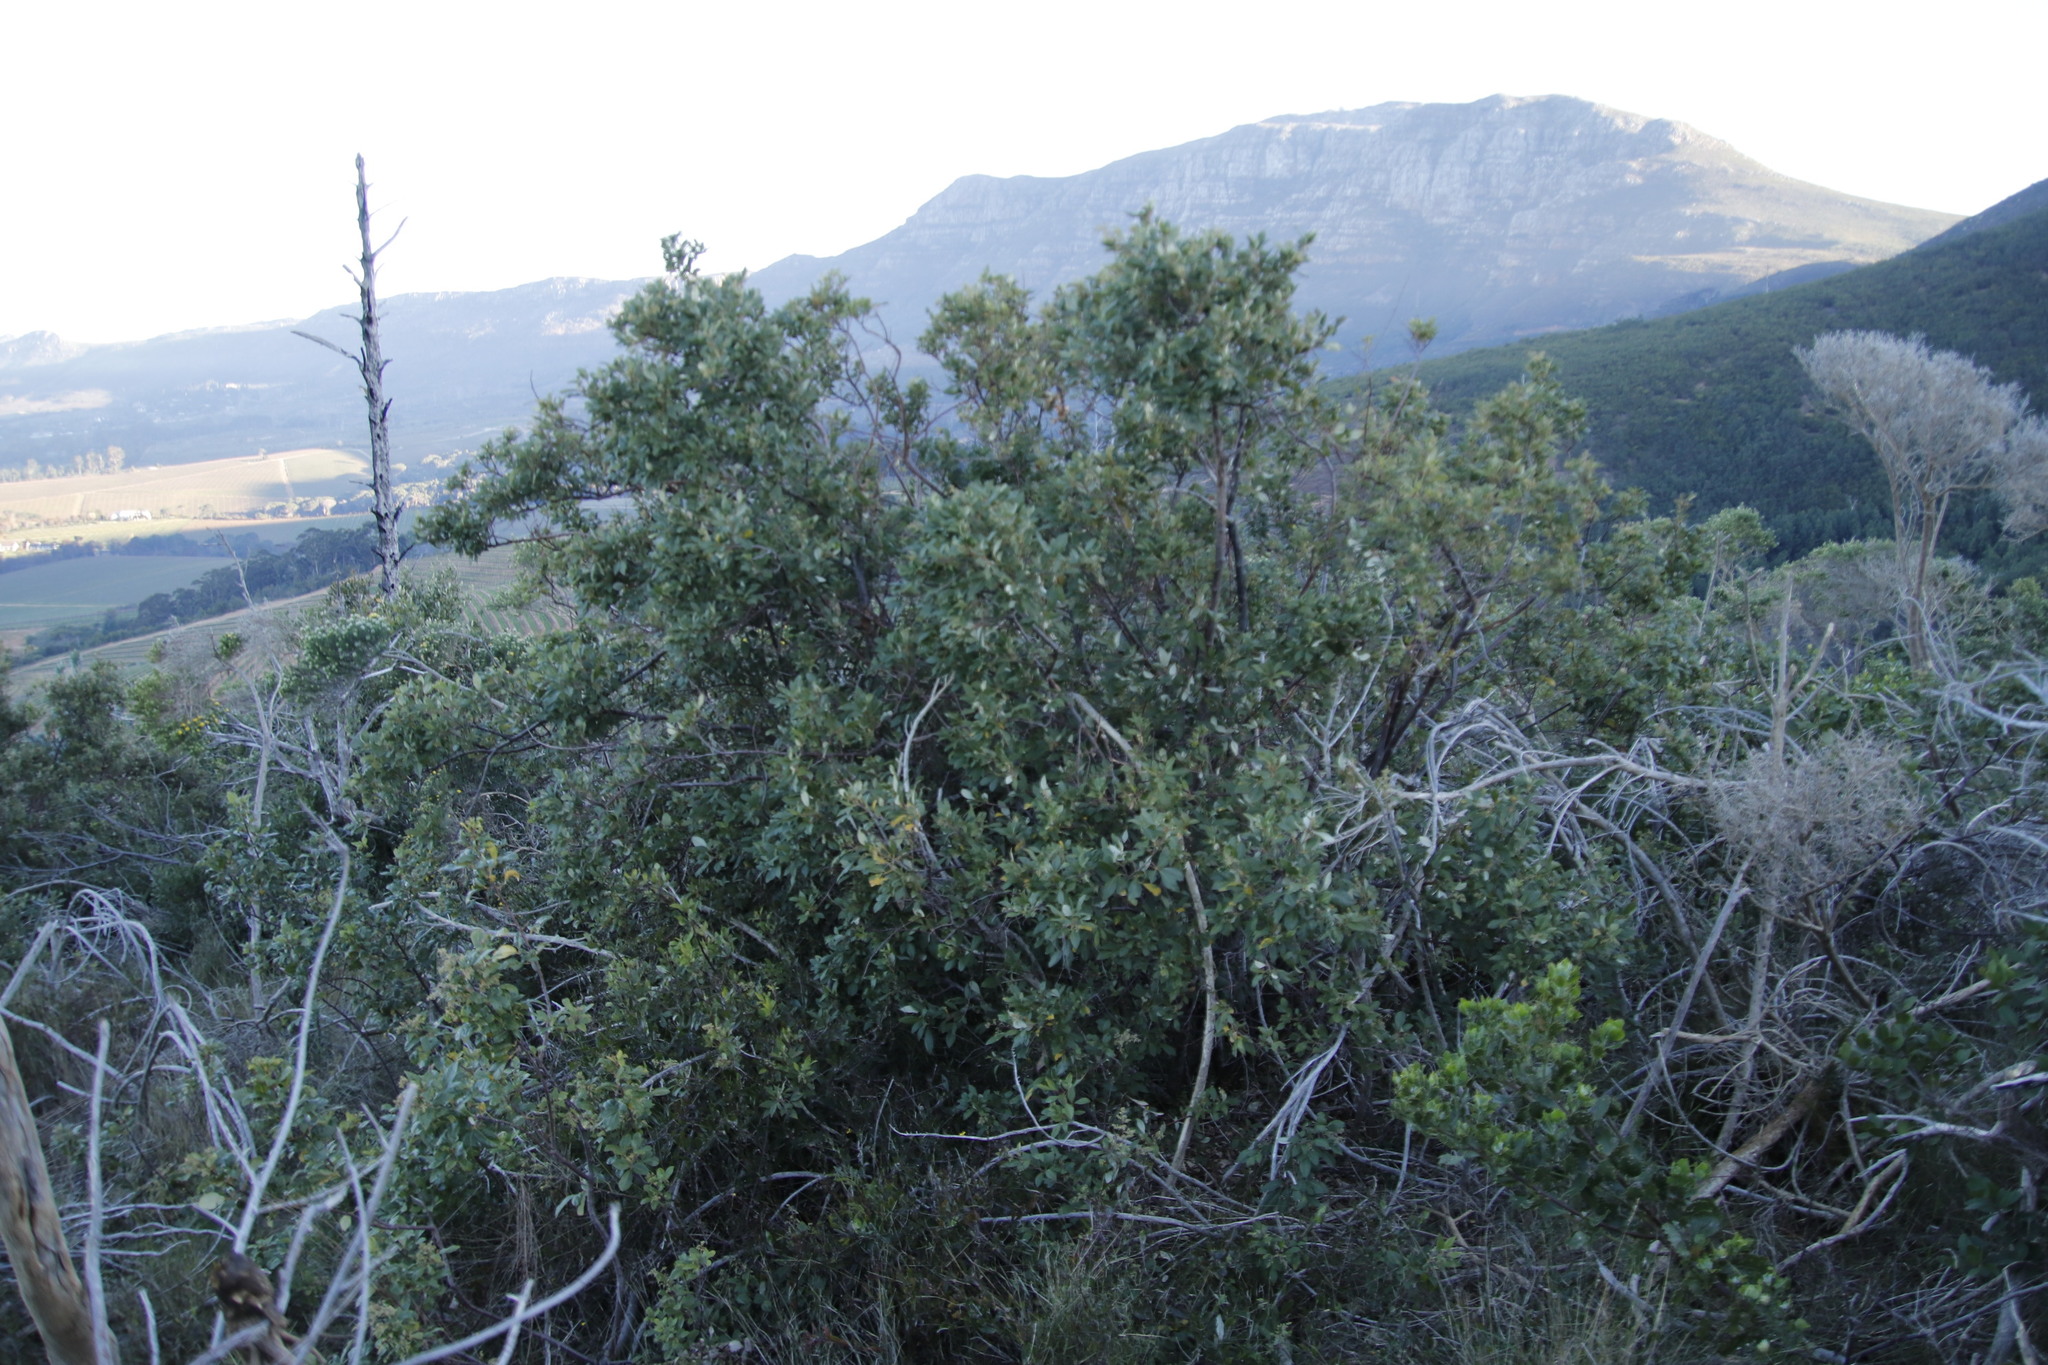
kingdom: Plantae
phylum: Tracheophyta
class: Magnoliopsida
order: Sapindales
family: Anacardiaceae
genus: Searsia
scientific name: Searsia tomentosa
